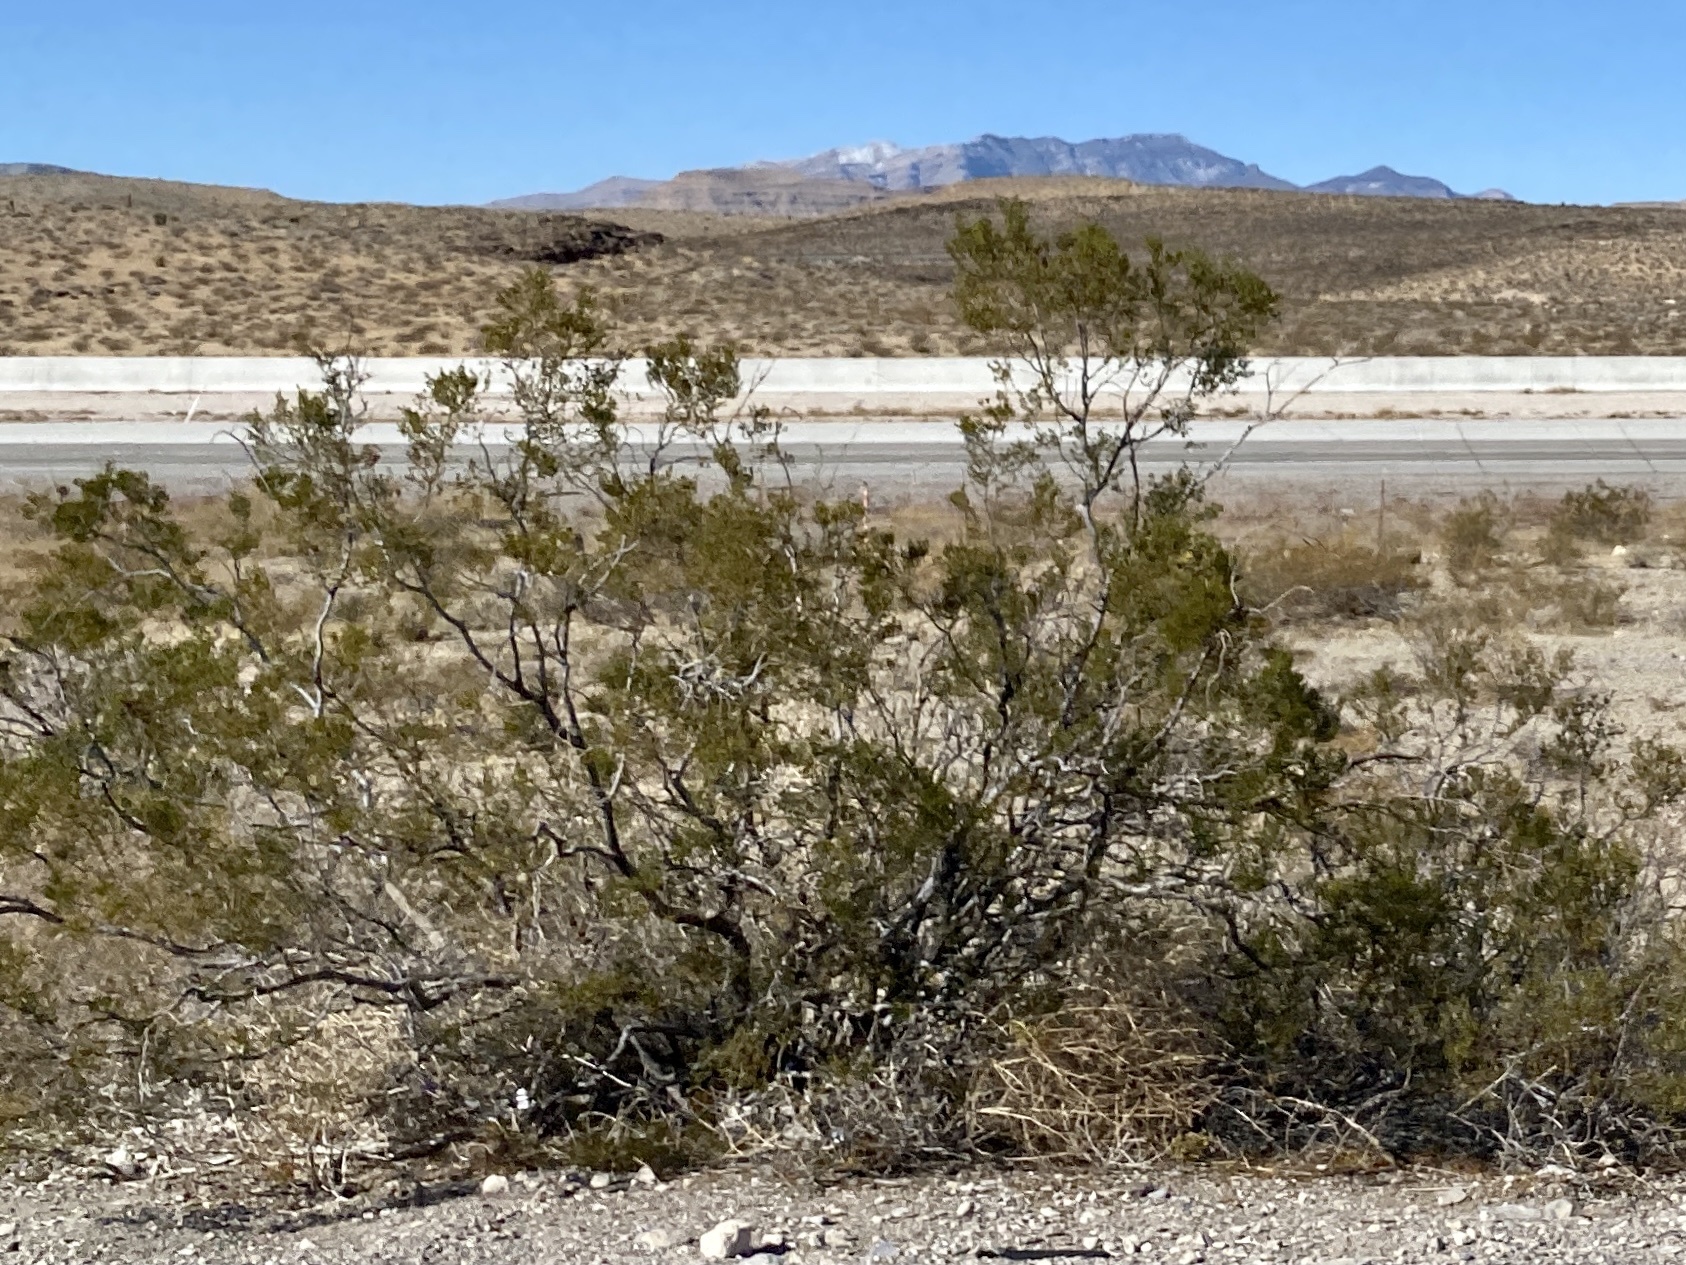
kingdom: Plantae
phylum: Tracheophyta
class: Magnoliopsida
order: Zygophyllales
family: Zygophyllaceae
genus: Larrea
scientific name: Larrea tridentata
